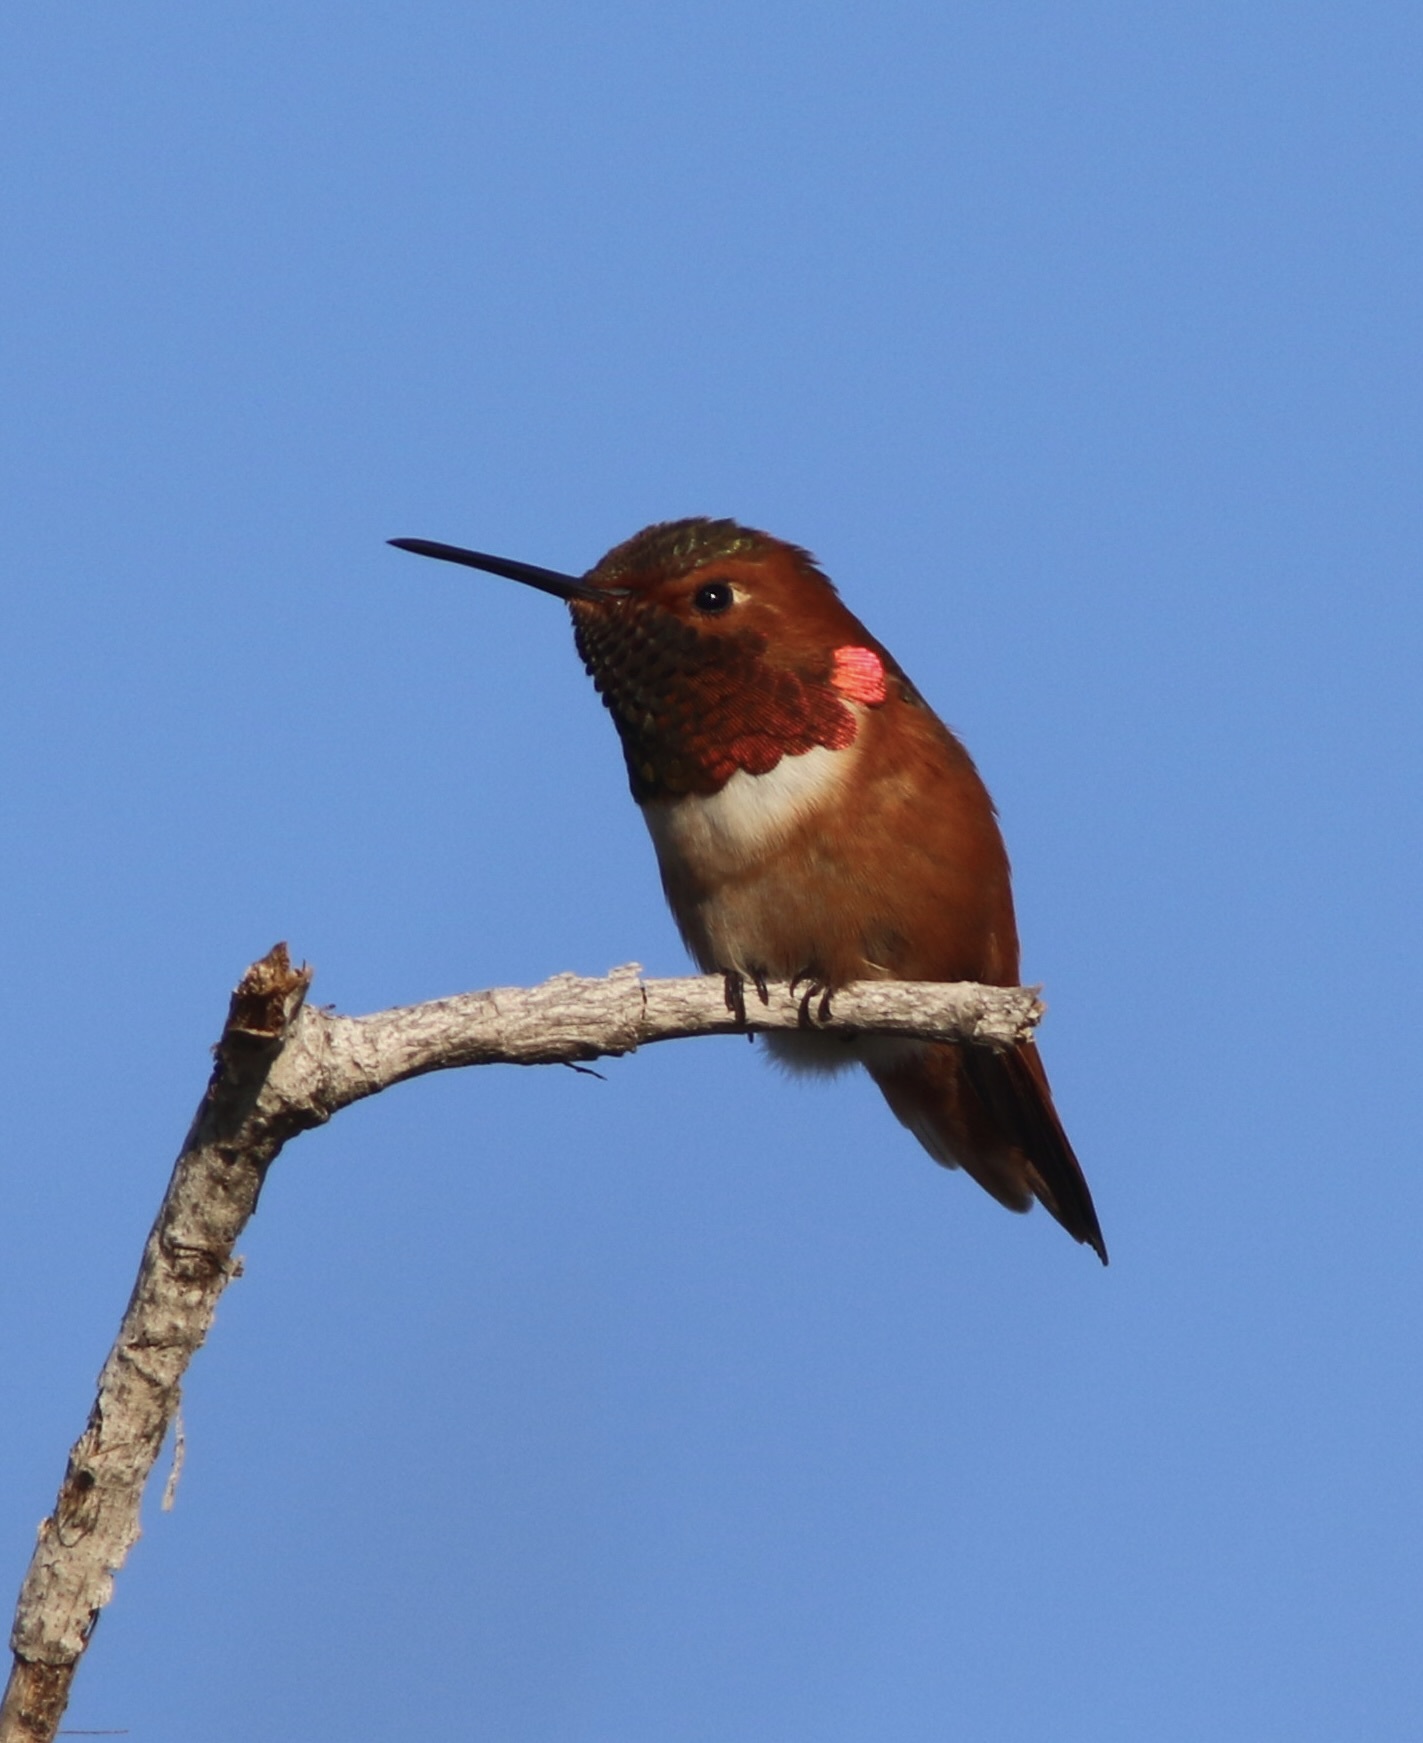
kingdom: Animalia
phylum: Chordata
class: Aves
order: Apodiformes
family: Trochilidae
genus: Selasphorus
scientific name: Selasphorus sasin
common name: Allen's hummingbird
